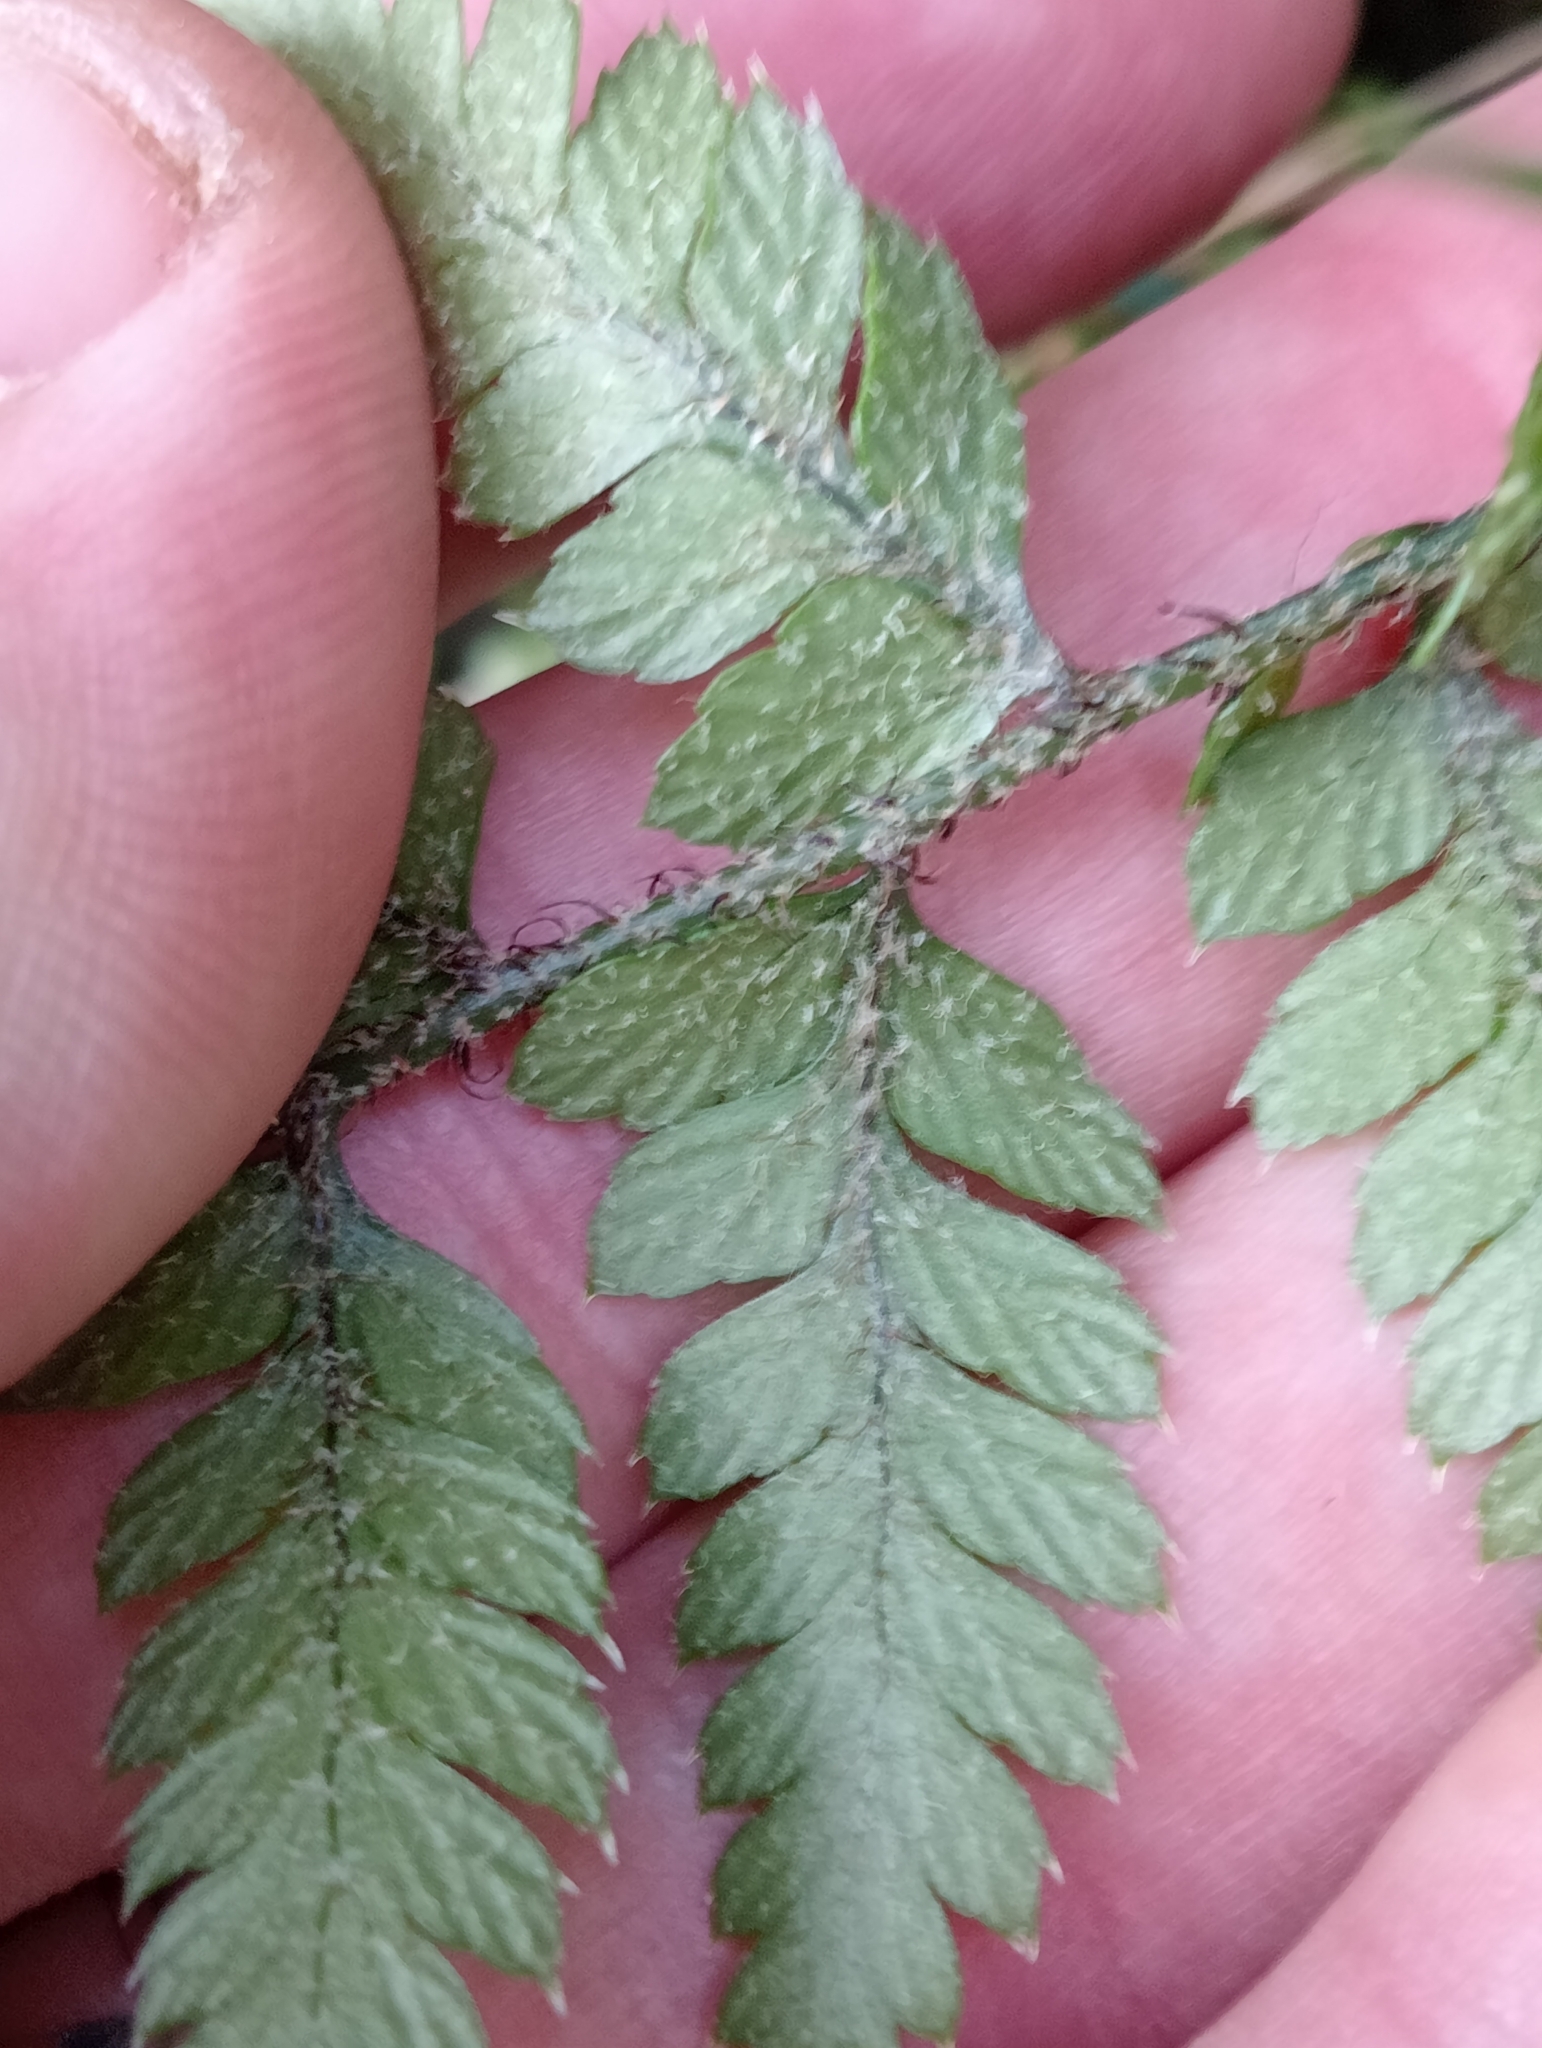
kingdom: Plantae
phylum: Tracheophyta
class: Polypodiopsida
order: Polypodiales
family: Dryopteridaceae
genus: Polystichum
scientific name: Polystichum neozelandicum
